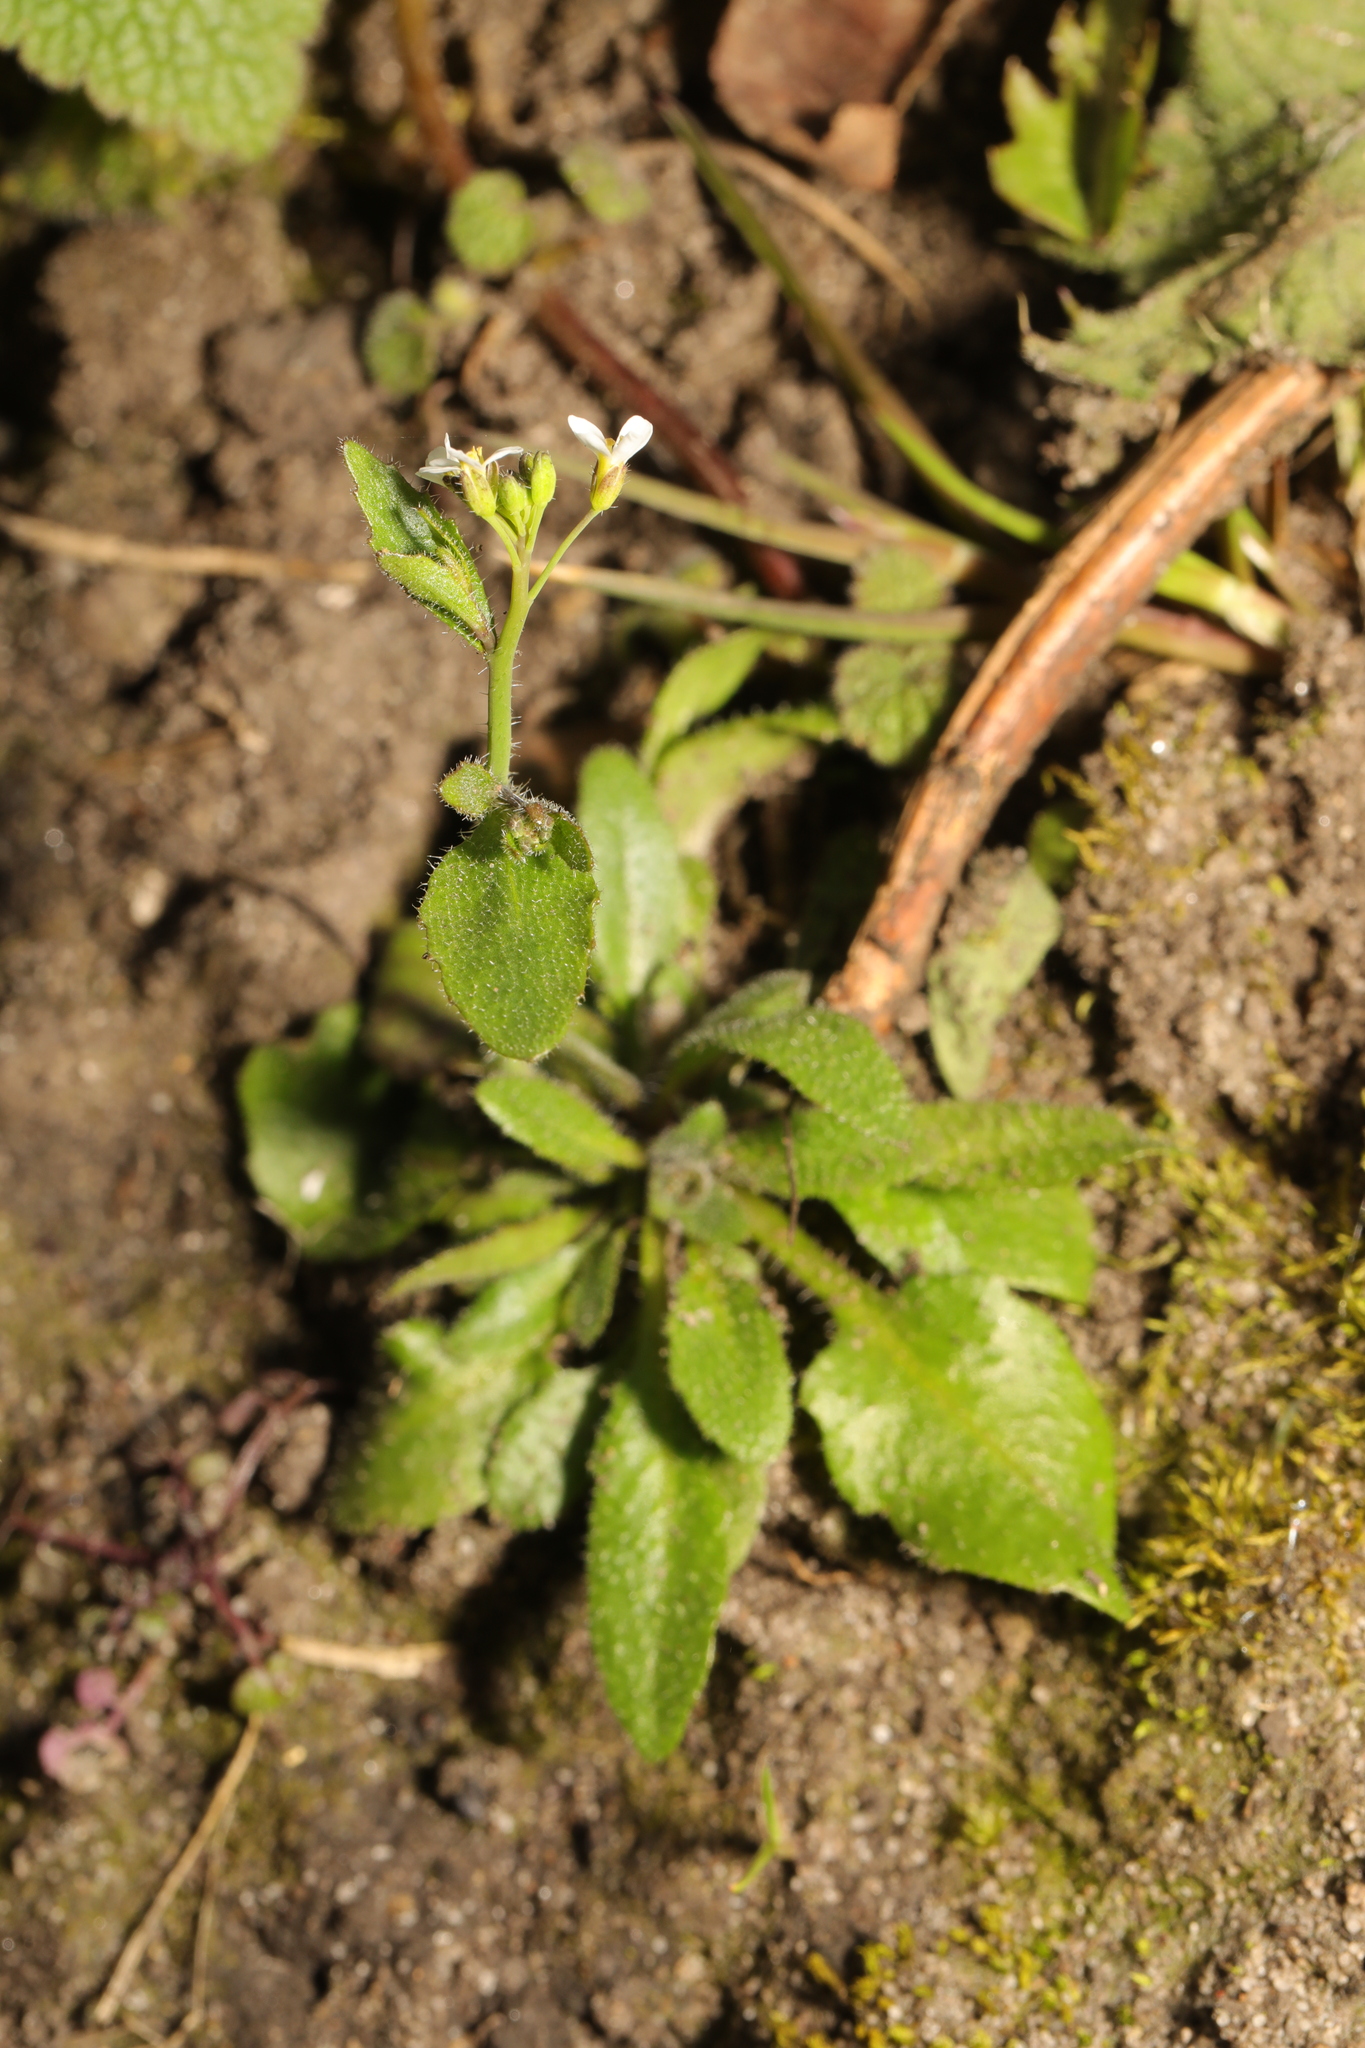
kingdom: Plantae
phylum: Tracheophyta
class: Magnoliopsida
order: Brassicales
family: Brassicaceae
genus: Arabidopsis
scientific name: Arabidopsis thaliana
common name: Thale cress
